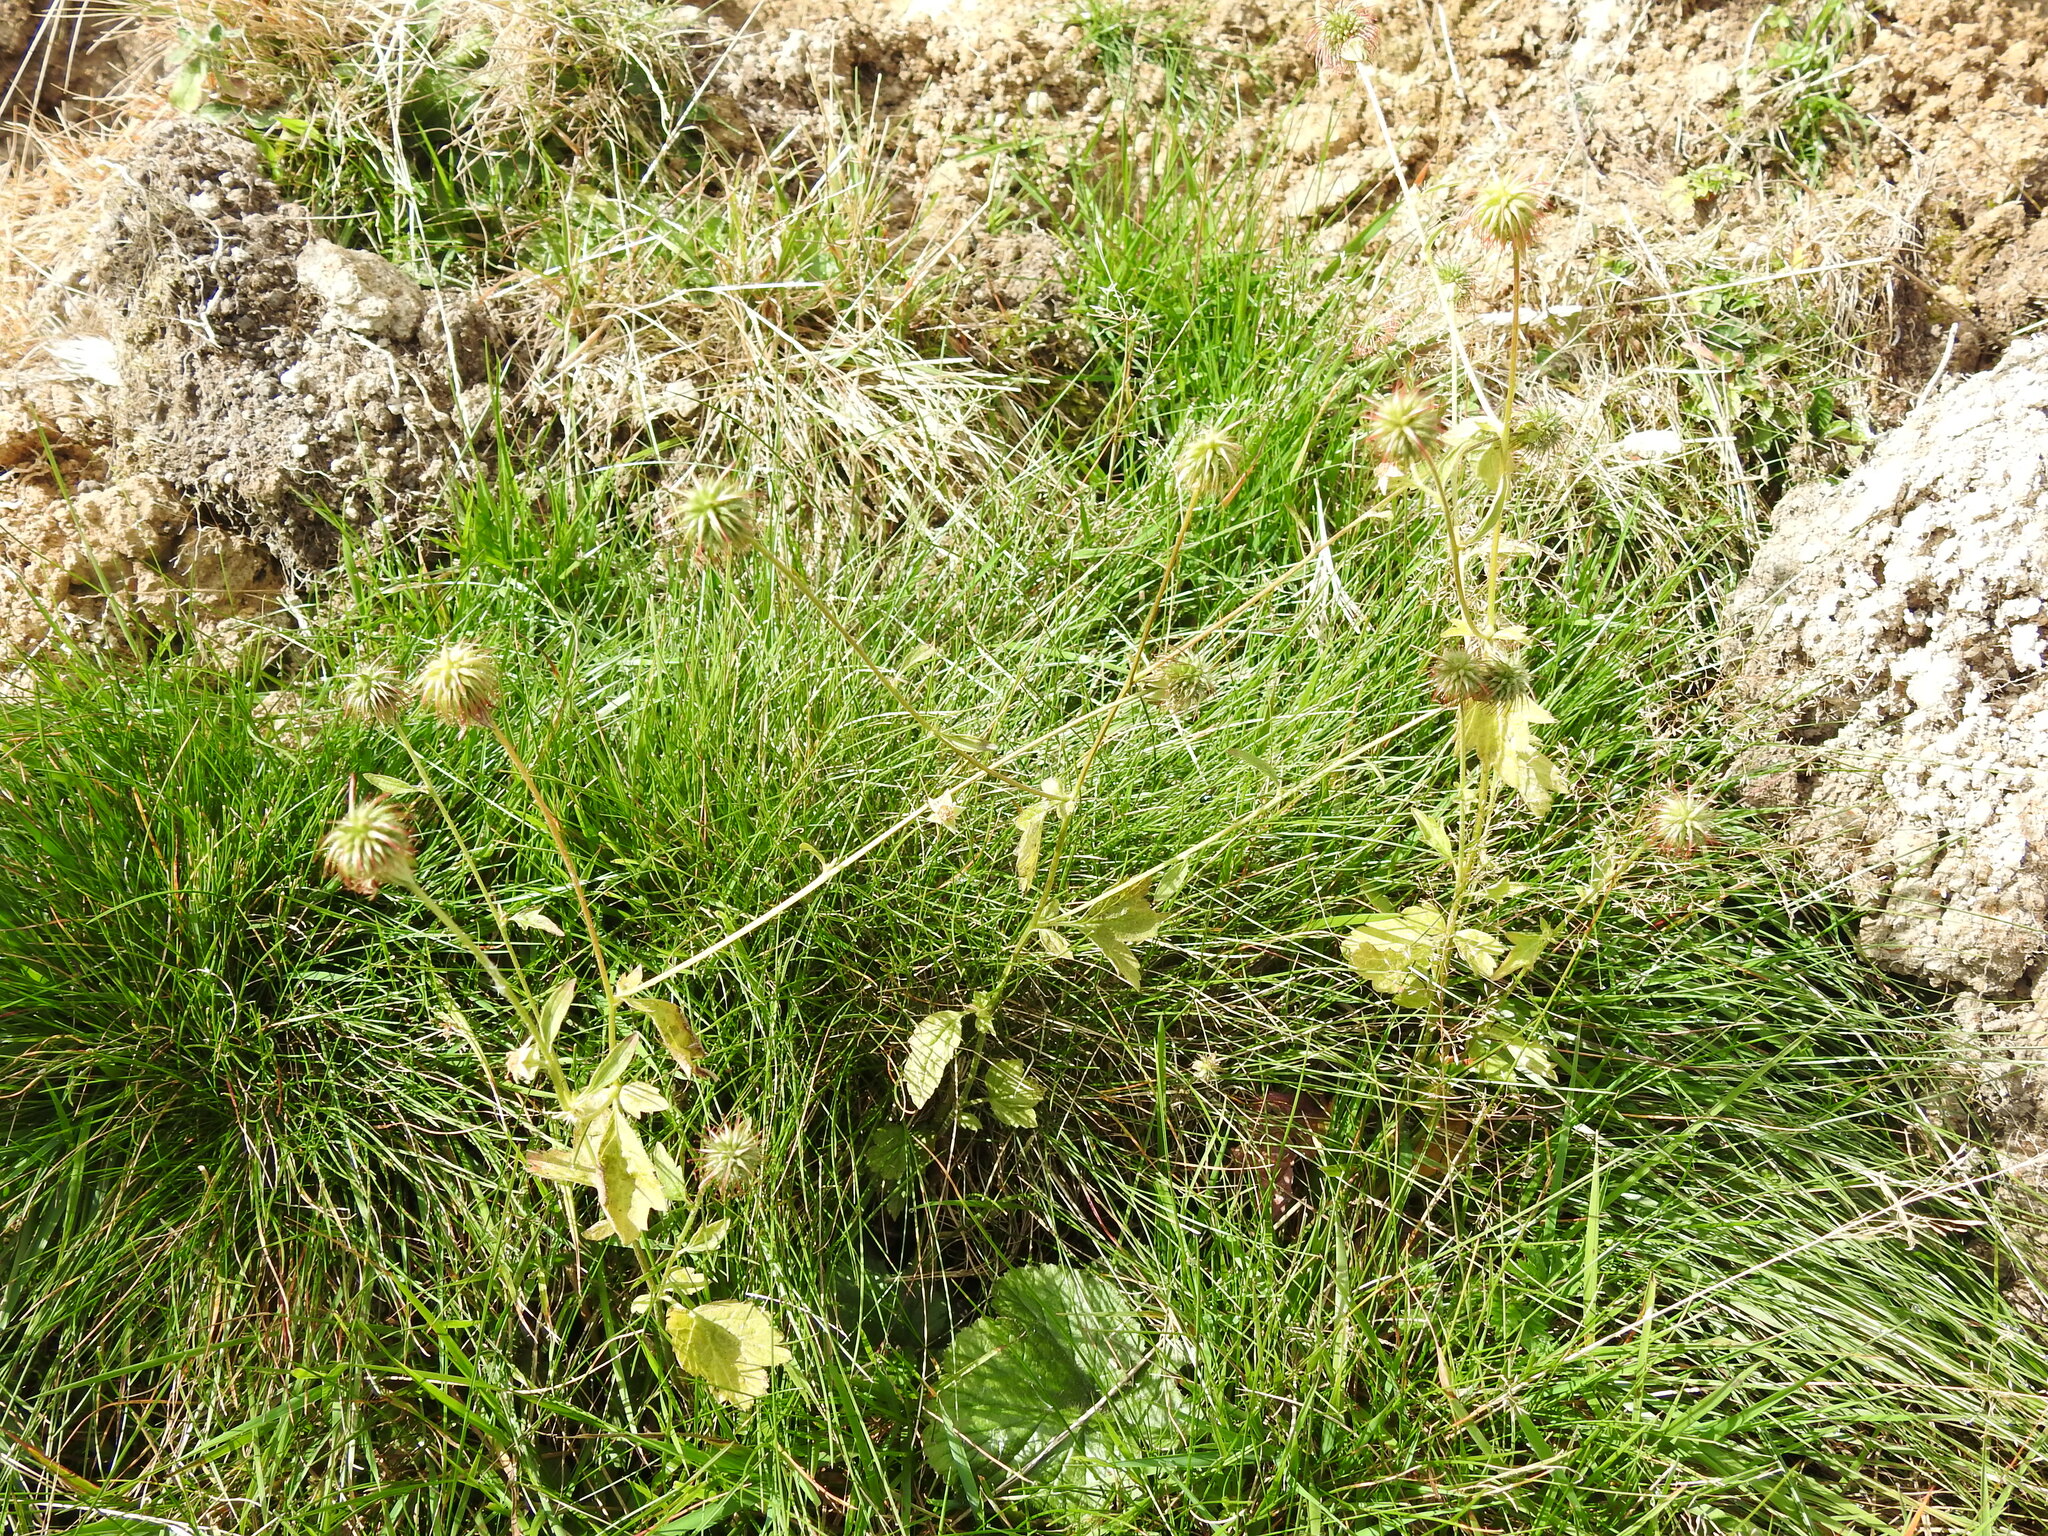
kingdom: Plantae
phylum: Tracheophyta
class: Magnoliopsida
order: Rosales
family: Rosaceae
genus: Geum
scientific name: Geum urbanum
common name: Wood avens
